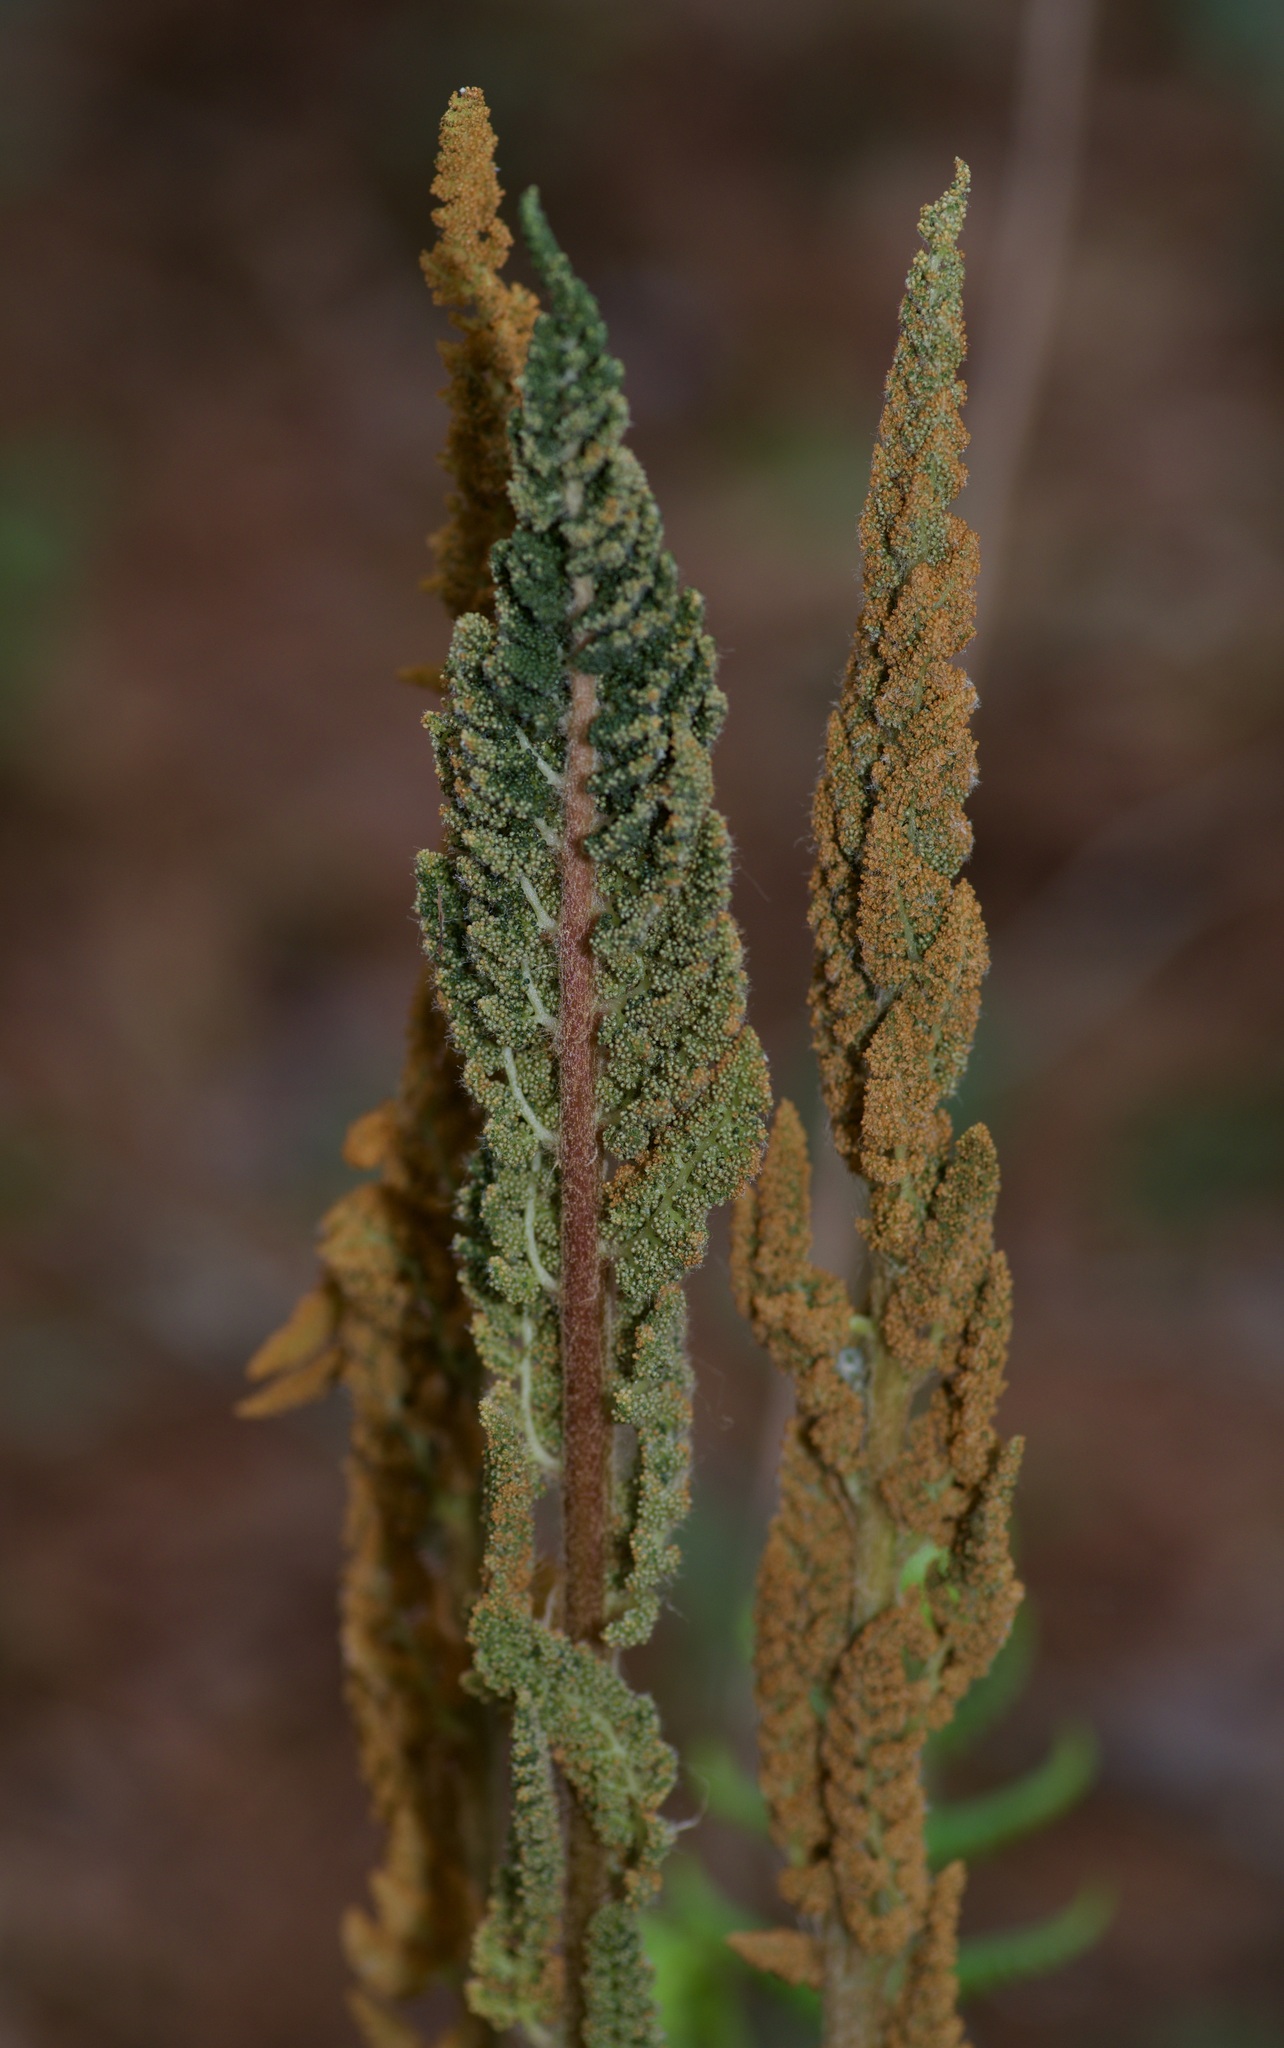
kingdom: Plantae
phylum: Tracheophyta
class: Polypodiopsida
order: Osmundales
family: Osmundaceae
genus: Osmundastrum
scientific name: Osmundastrum cinnamomeum
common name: Cinnamon fern
